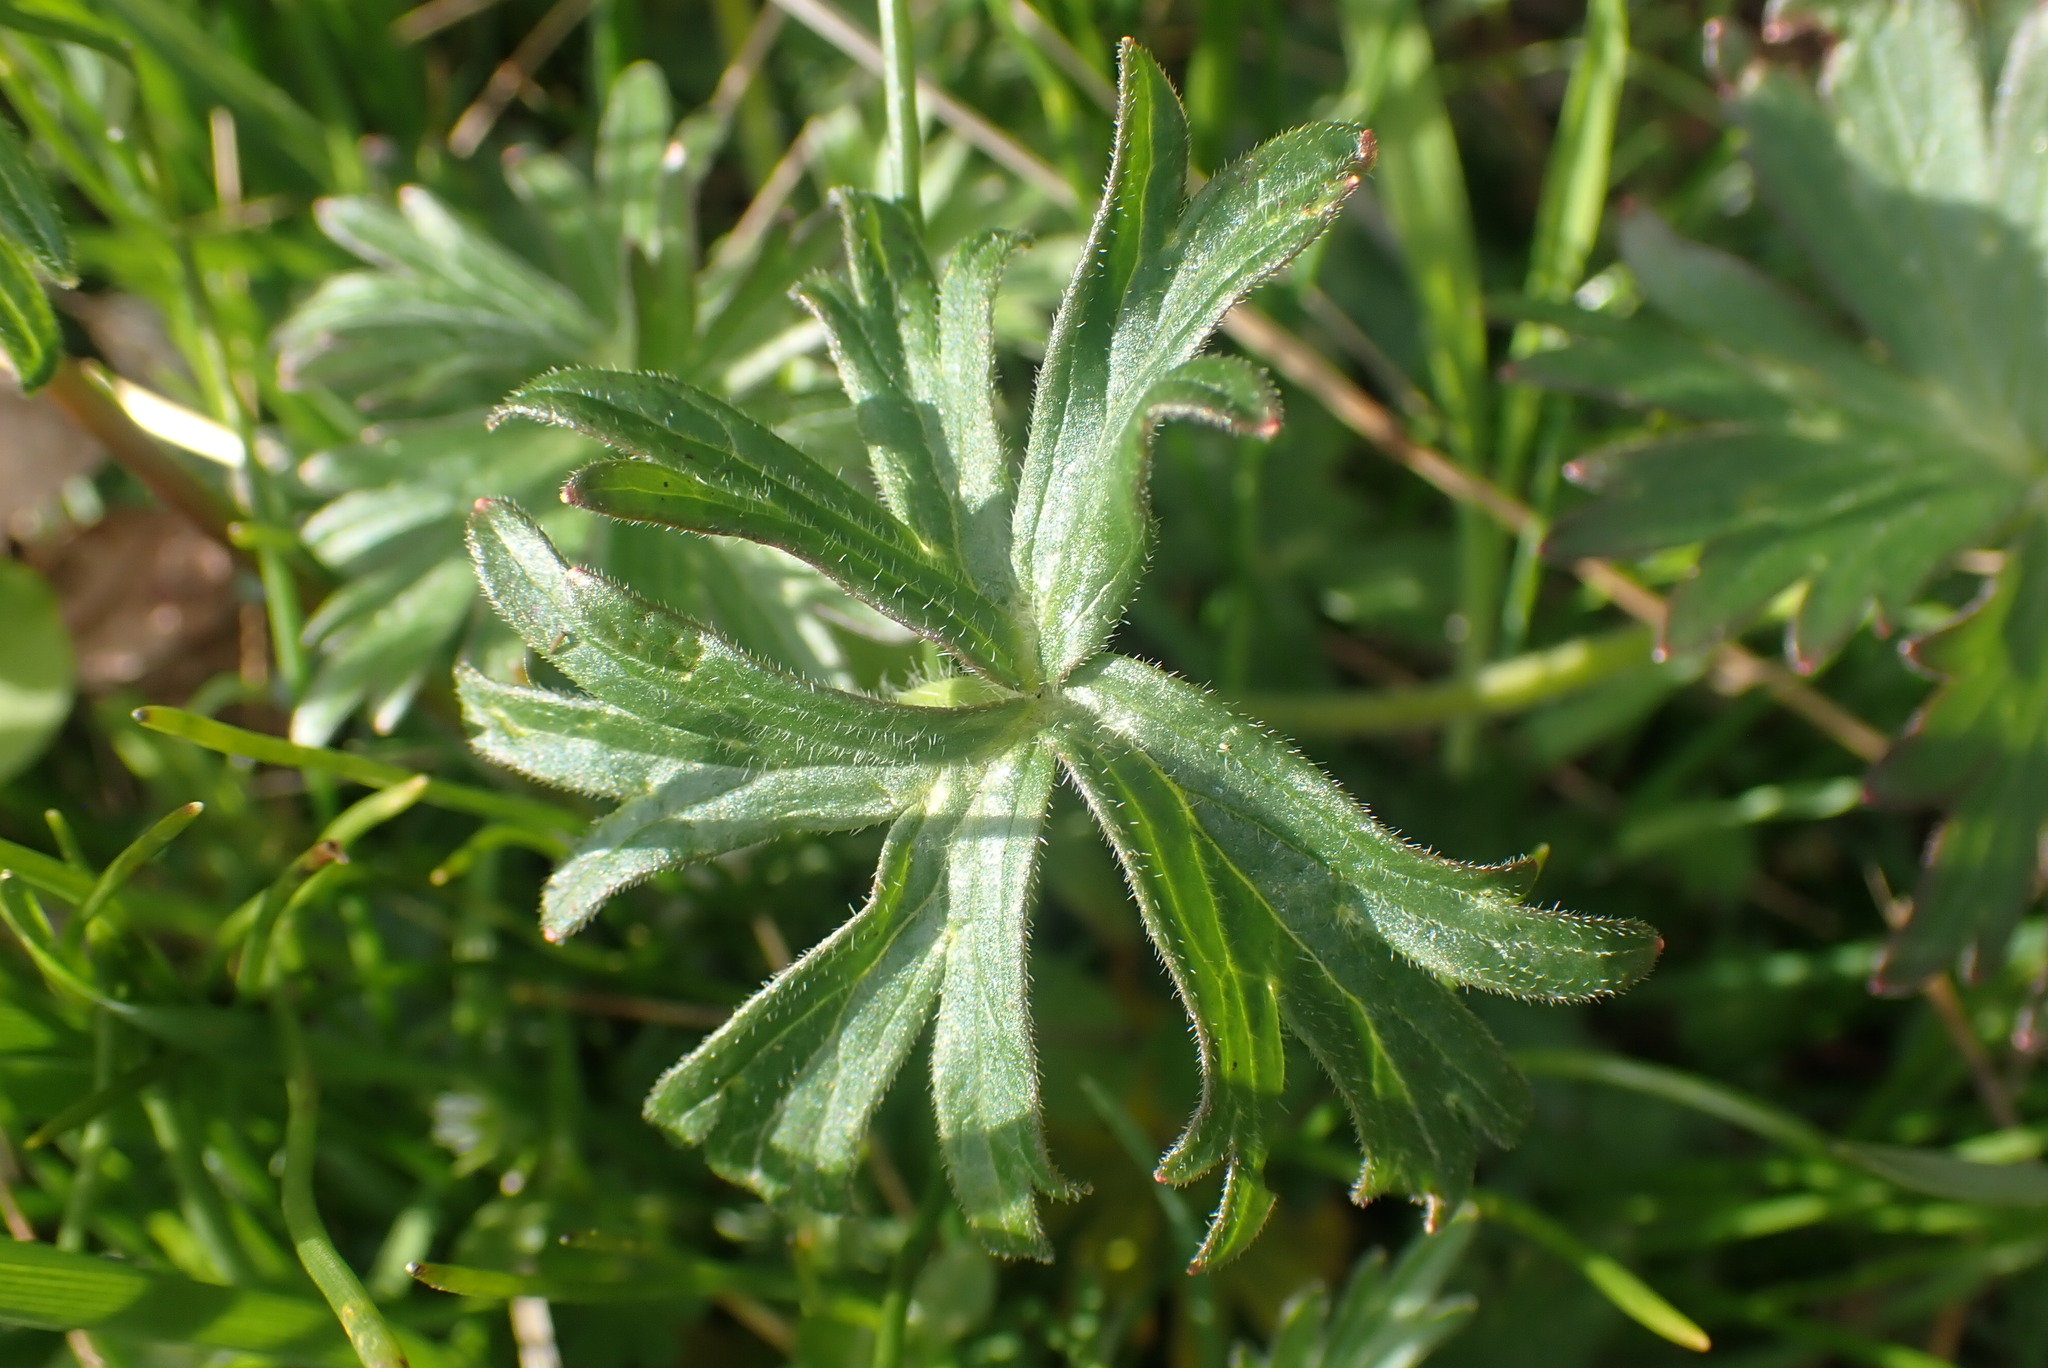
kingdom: Plantae
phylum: Tracheophyta
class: Magnoliopsida
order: Ranunculales
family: Ranunculaceae
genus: Delphinium
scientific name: Delphinium menziesii
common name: Menzies's larkspur
